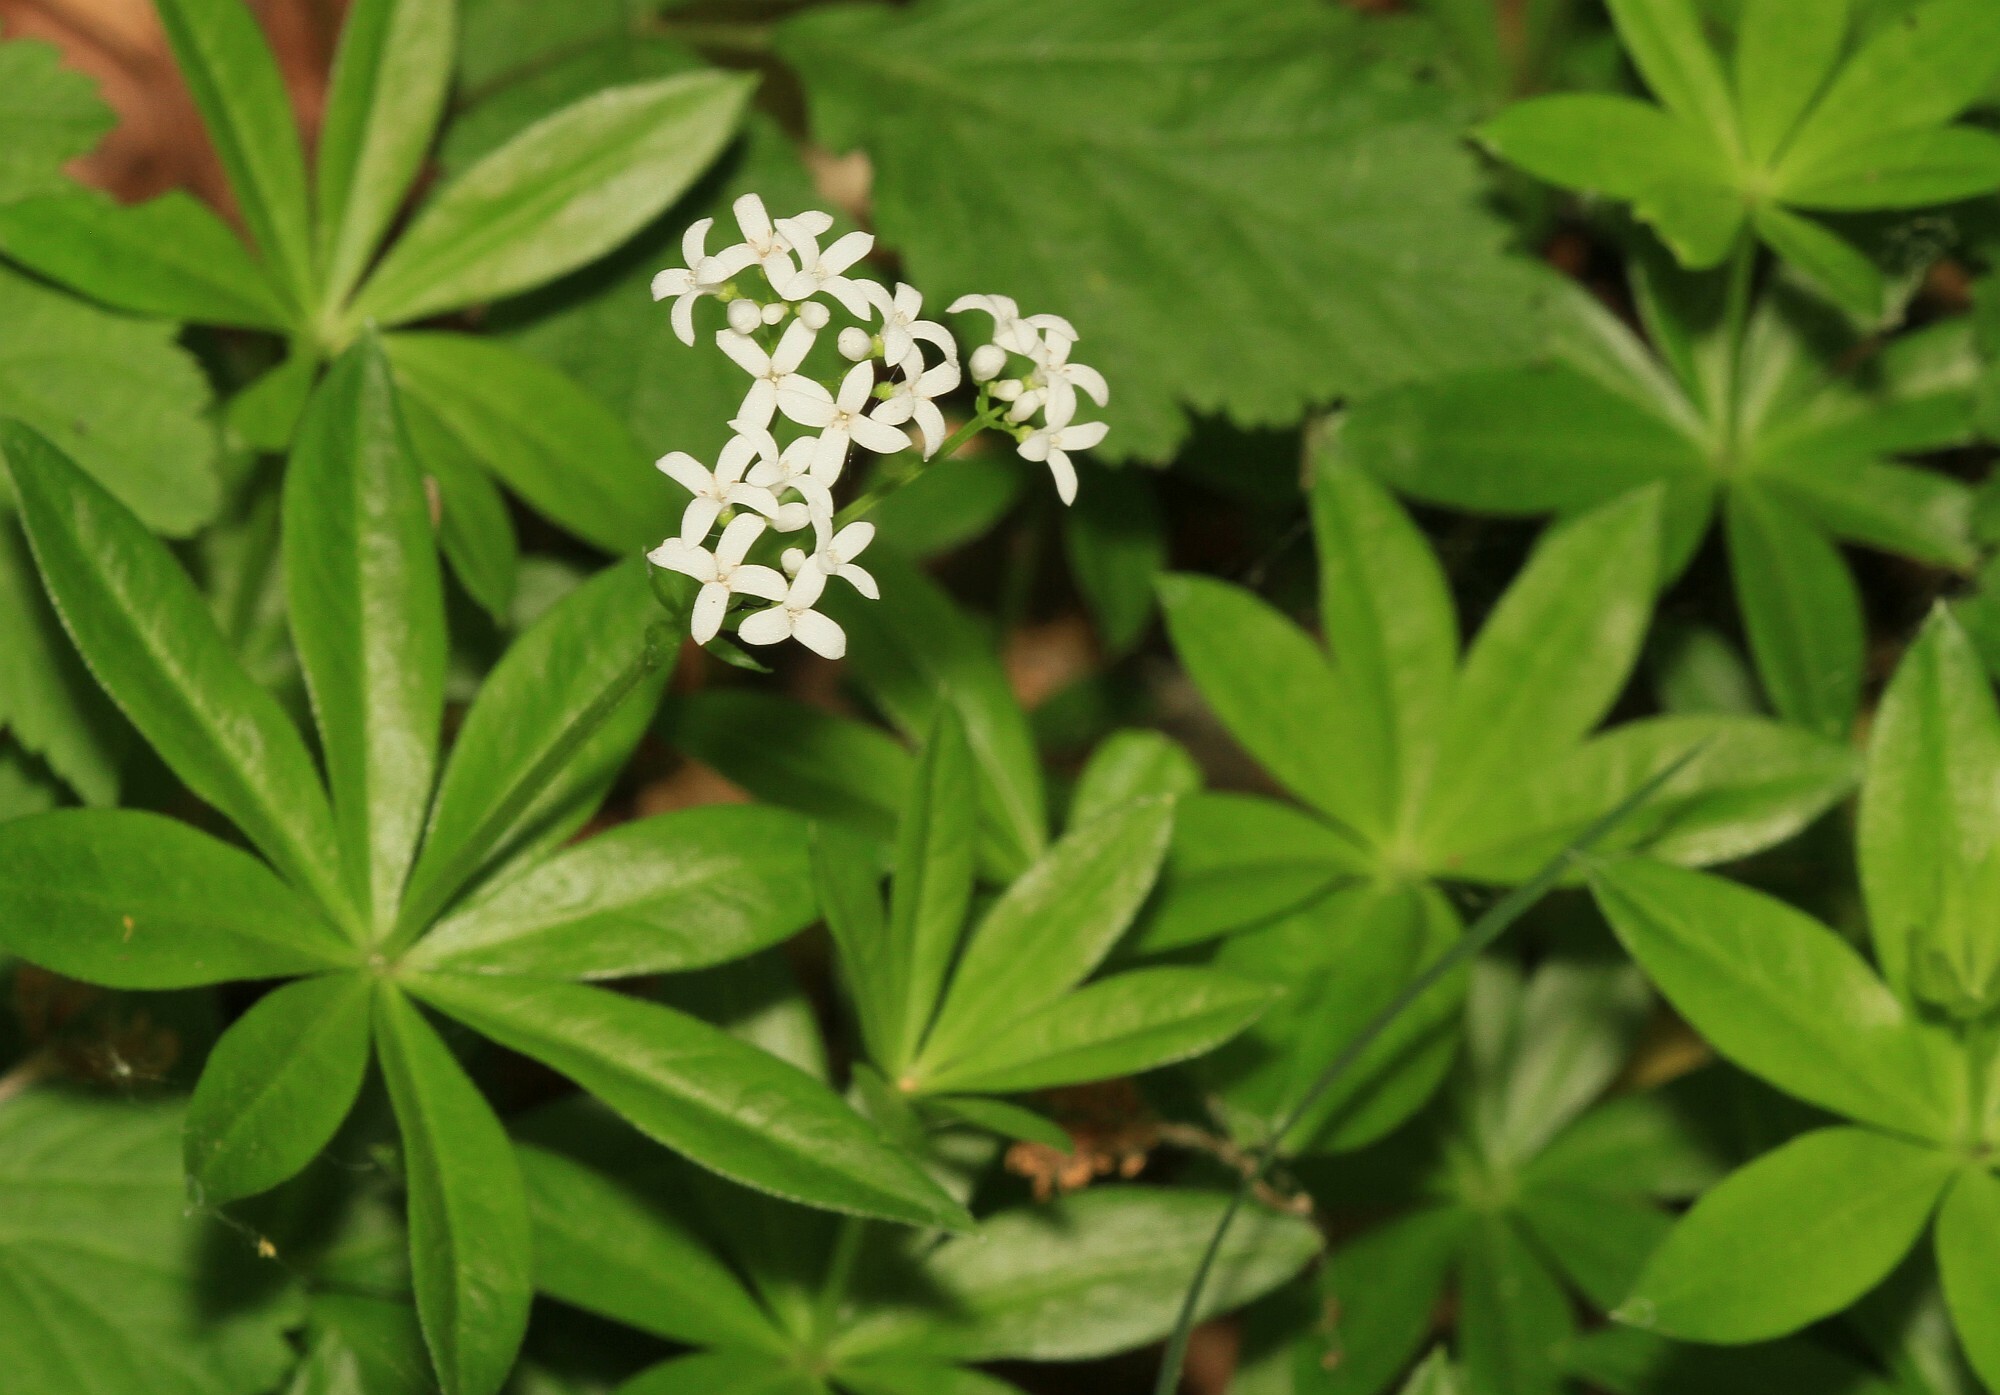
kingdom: Plantae
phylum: Tracheophyta
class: Magnoliopsida
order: Gentianales
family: Rubiaceae
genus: Galium
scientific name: Galium odoratum
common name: Sweet woodruff
